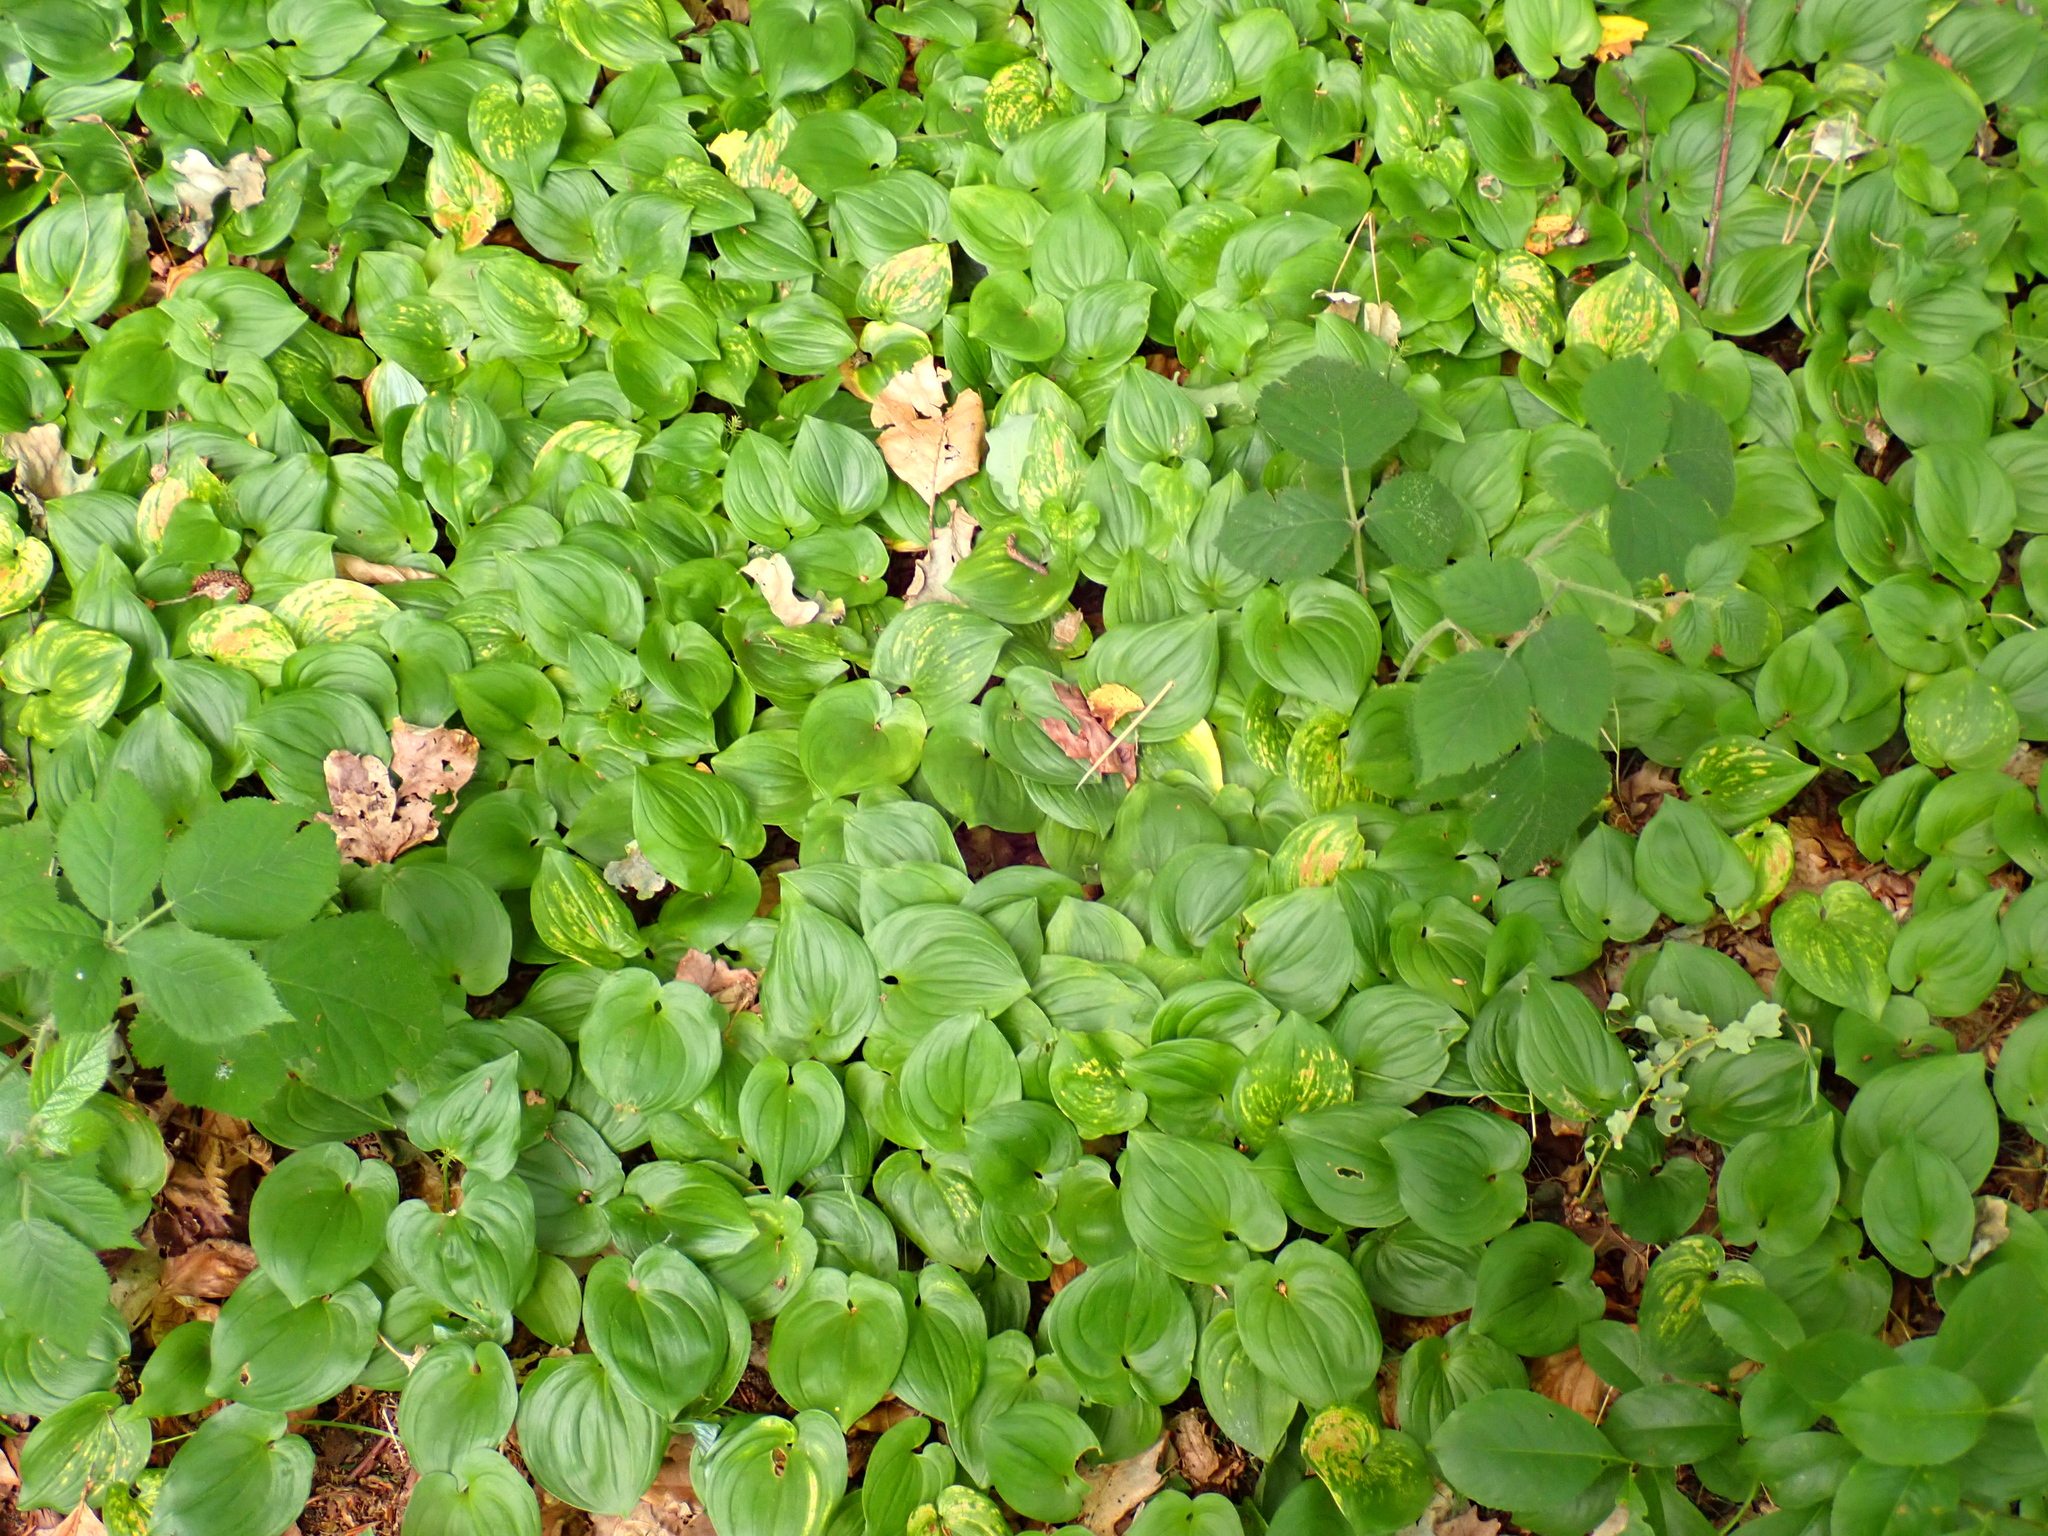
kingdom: Plantae
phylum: Tracheophyta
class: Liliopsida
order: Asparagales
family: Asparagaceae
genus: Maianthemum
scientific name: Maianthemum bifolium
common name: May lily
